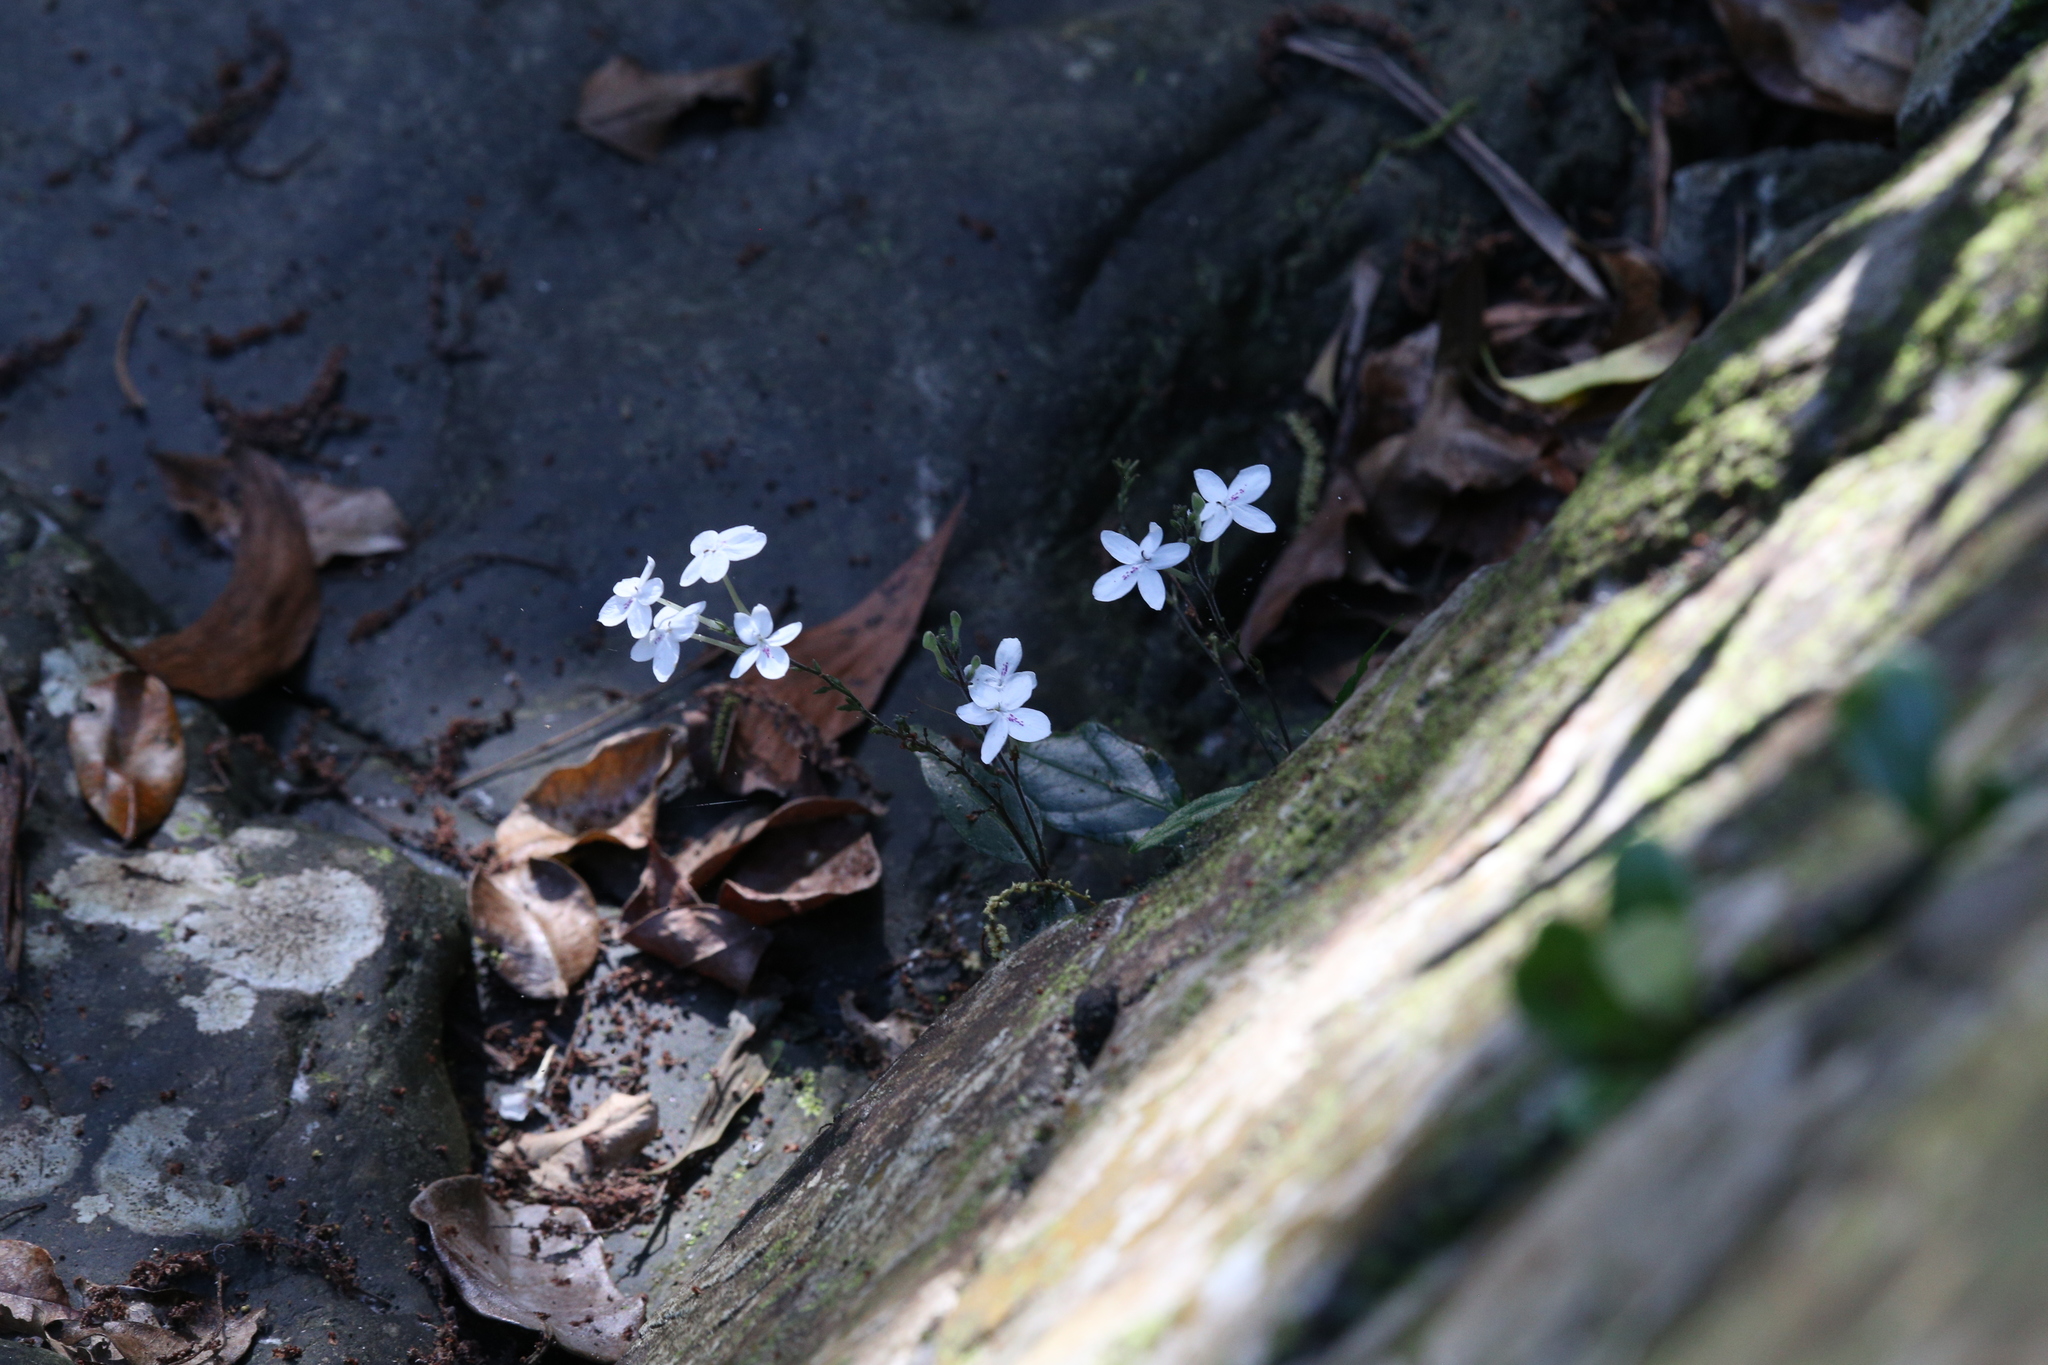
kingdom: Plantae
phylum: Tracheophyta
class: Magnoliopsida
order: Lamiales
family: Acanthaceae
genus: Pseuderanthemum
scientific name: Pseuderanthemum variabile
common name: Night and afternoon
